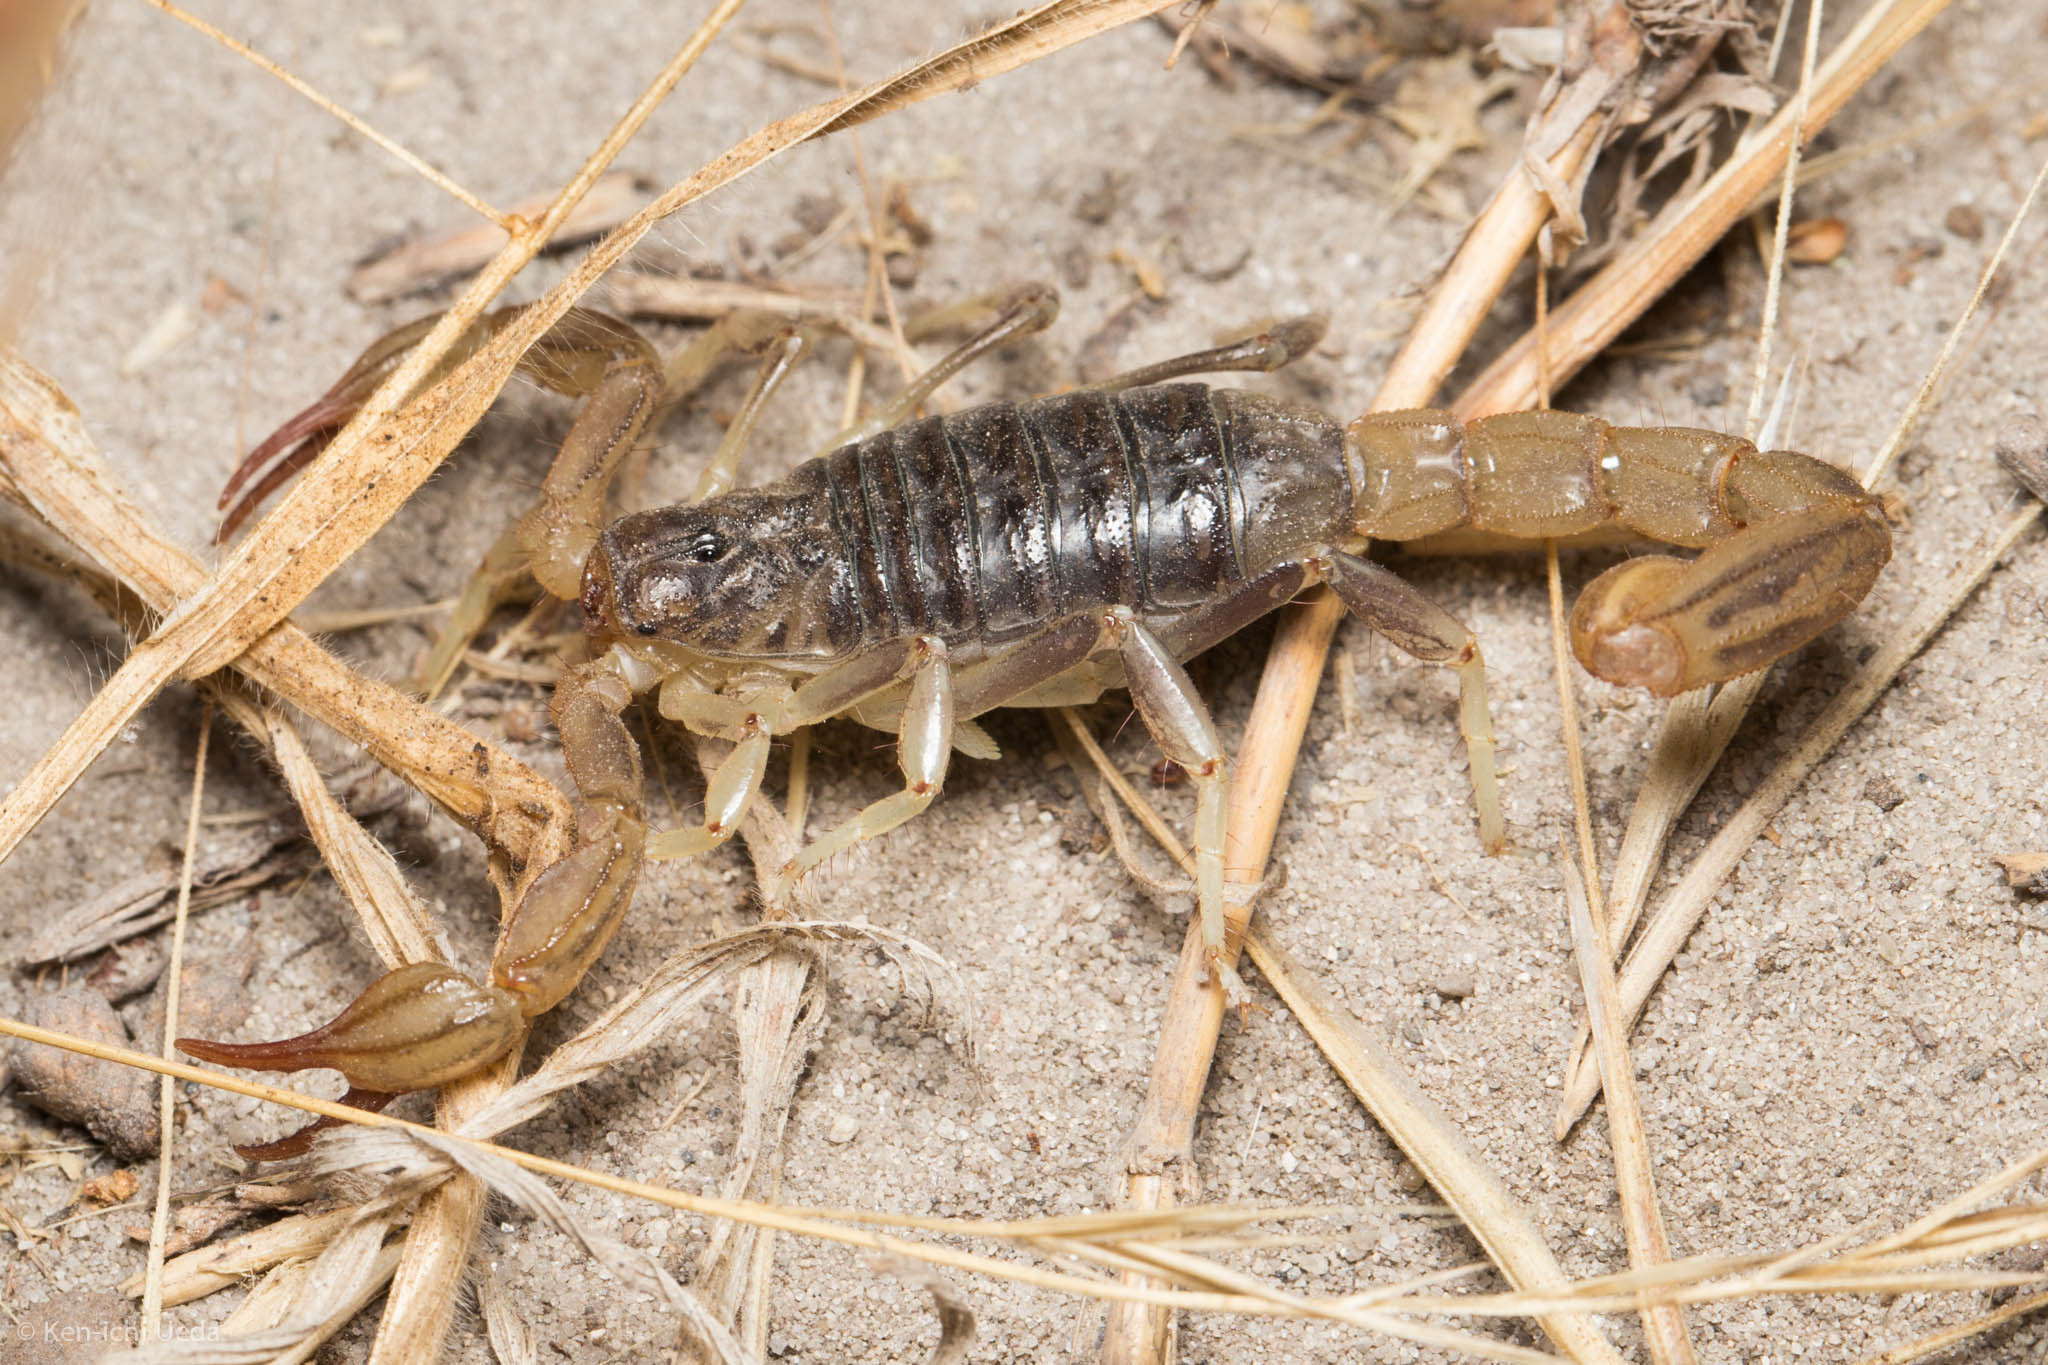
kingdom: Animalia
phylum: Arthropoda
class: Arachnida
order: Scorpiones
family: Vaejovidae
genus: Paruroctonus
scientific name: Paruroctonus silvestrii
